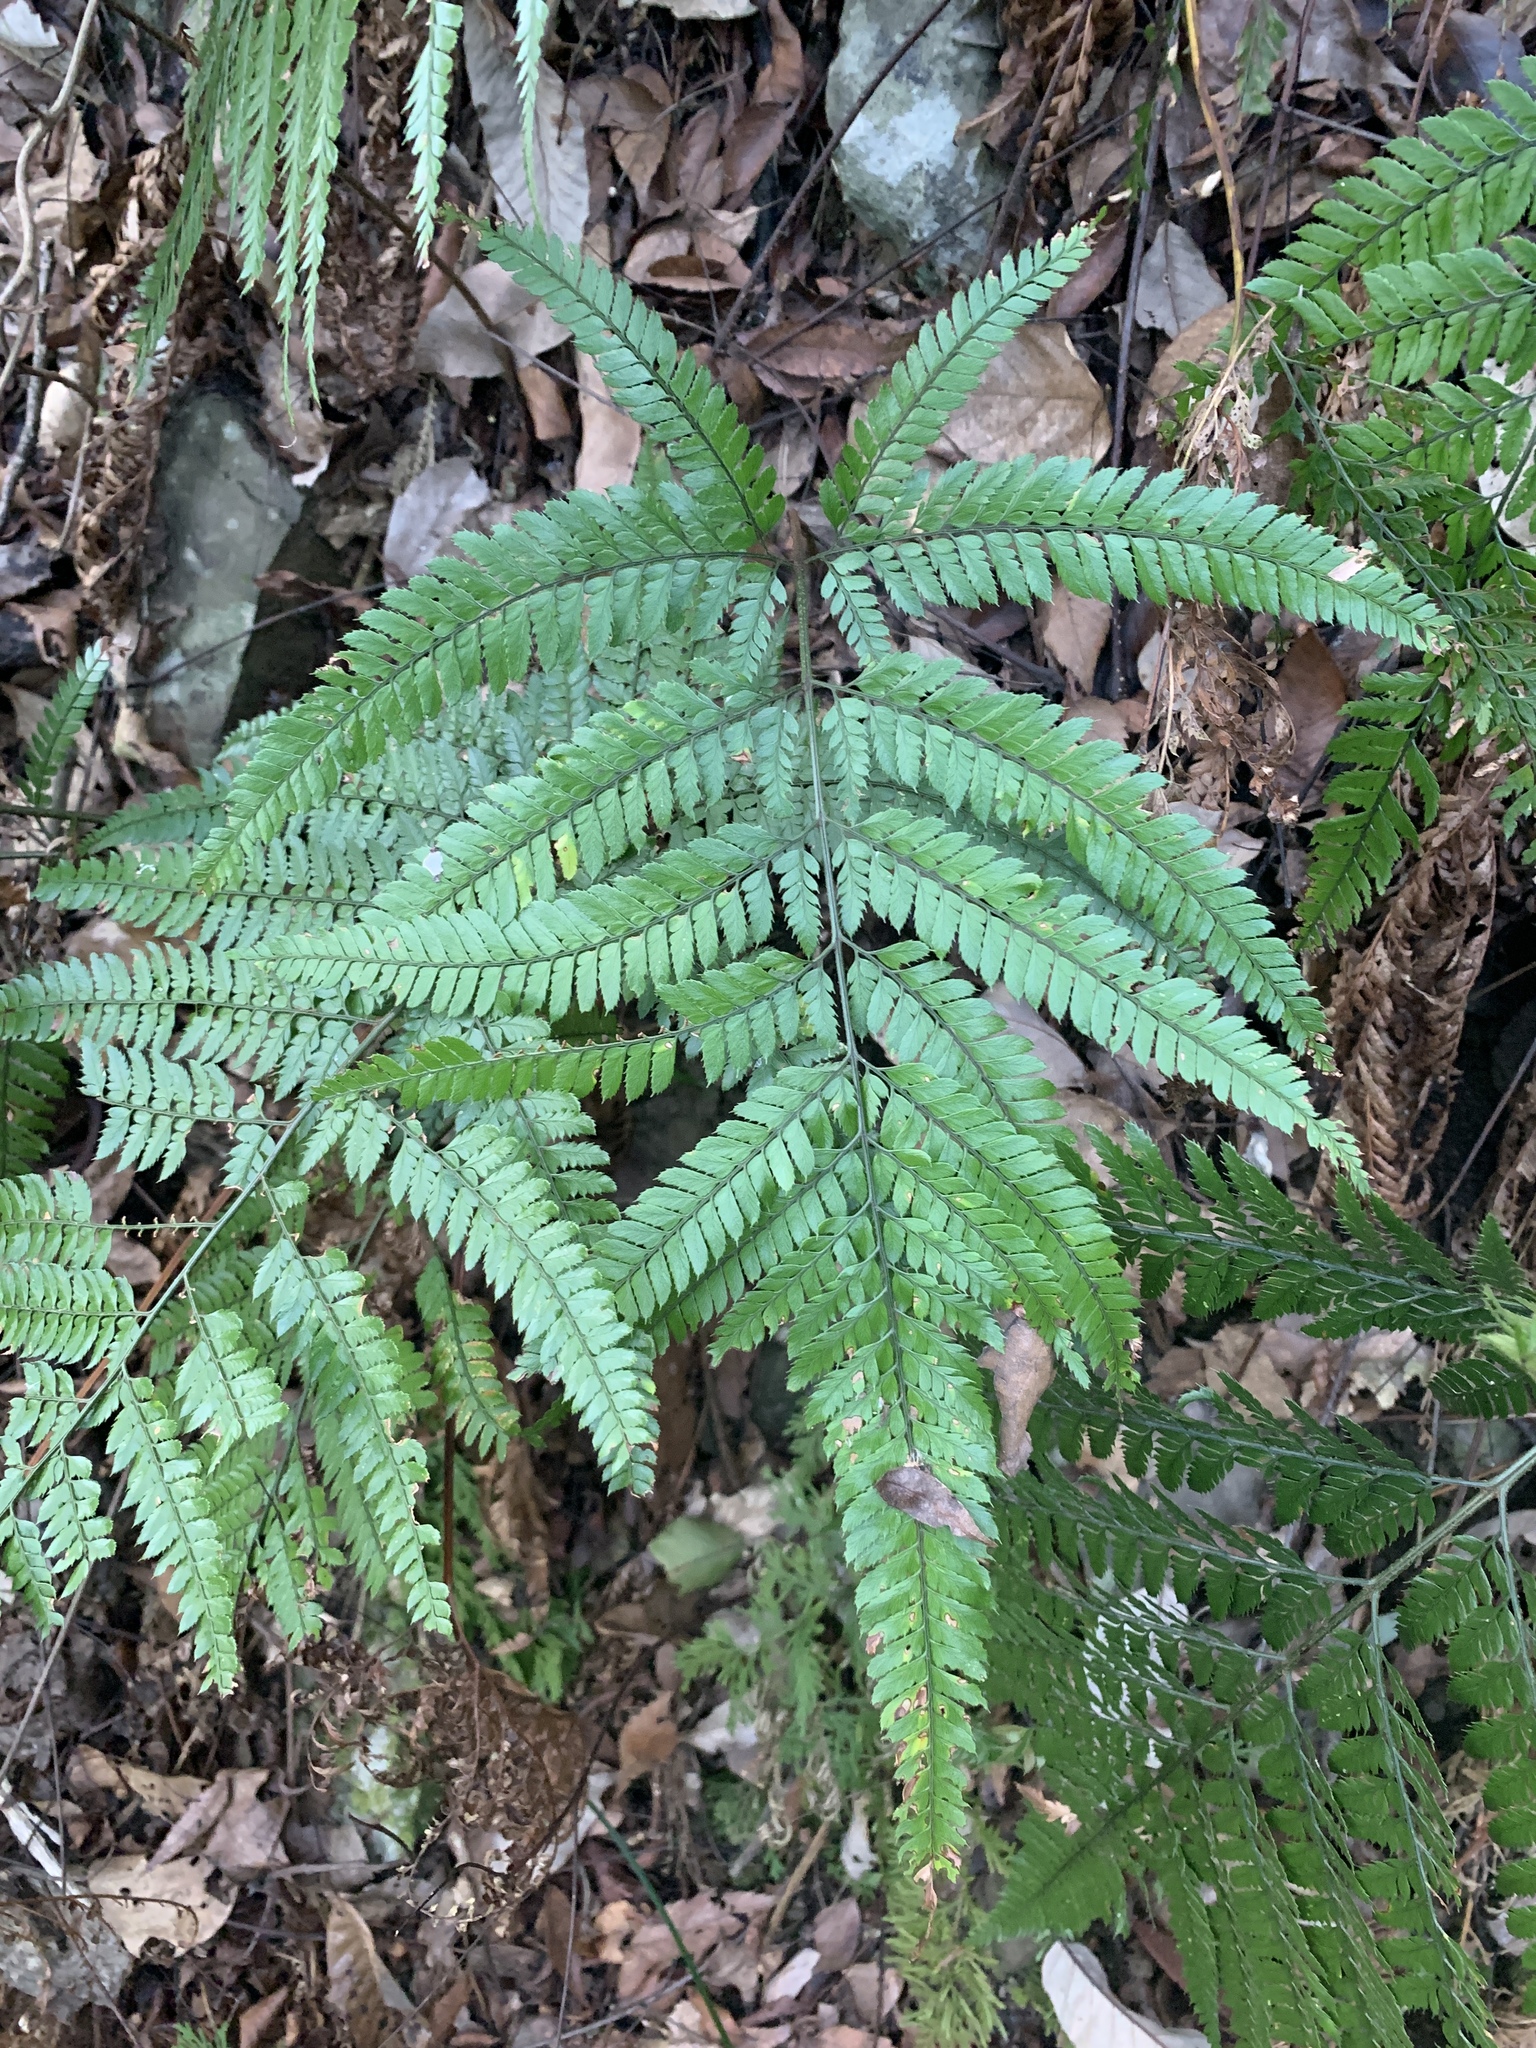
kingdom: Plantae
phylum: Tracheophyta
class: Polypodiopsida
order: Polypodiales
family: Dryopteridaceae
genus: Arachniodes
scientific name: Arachniodes aristata
